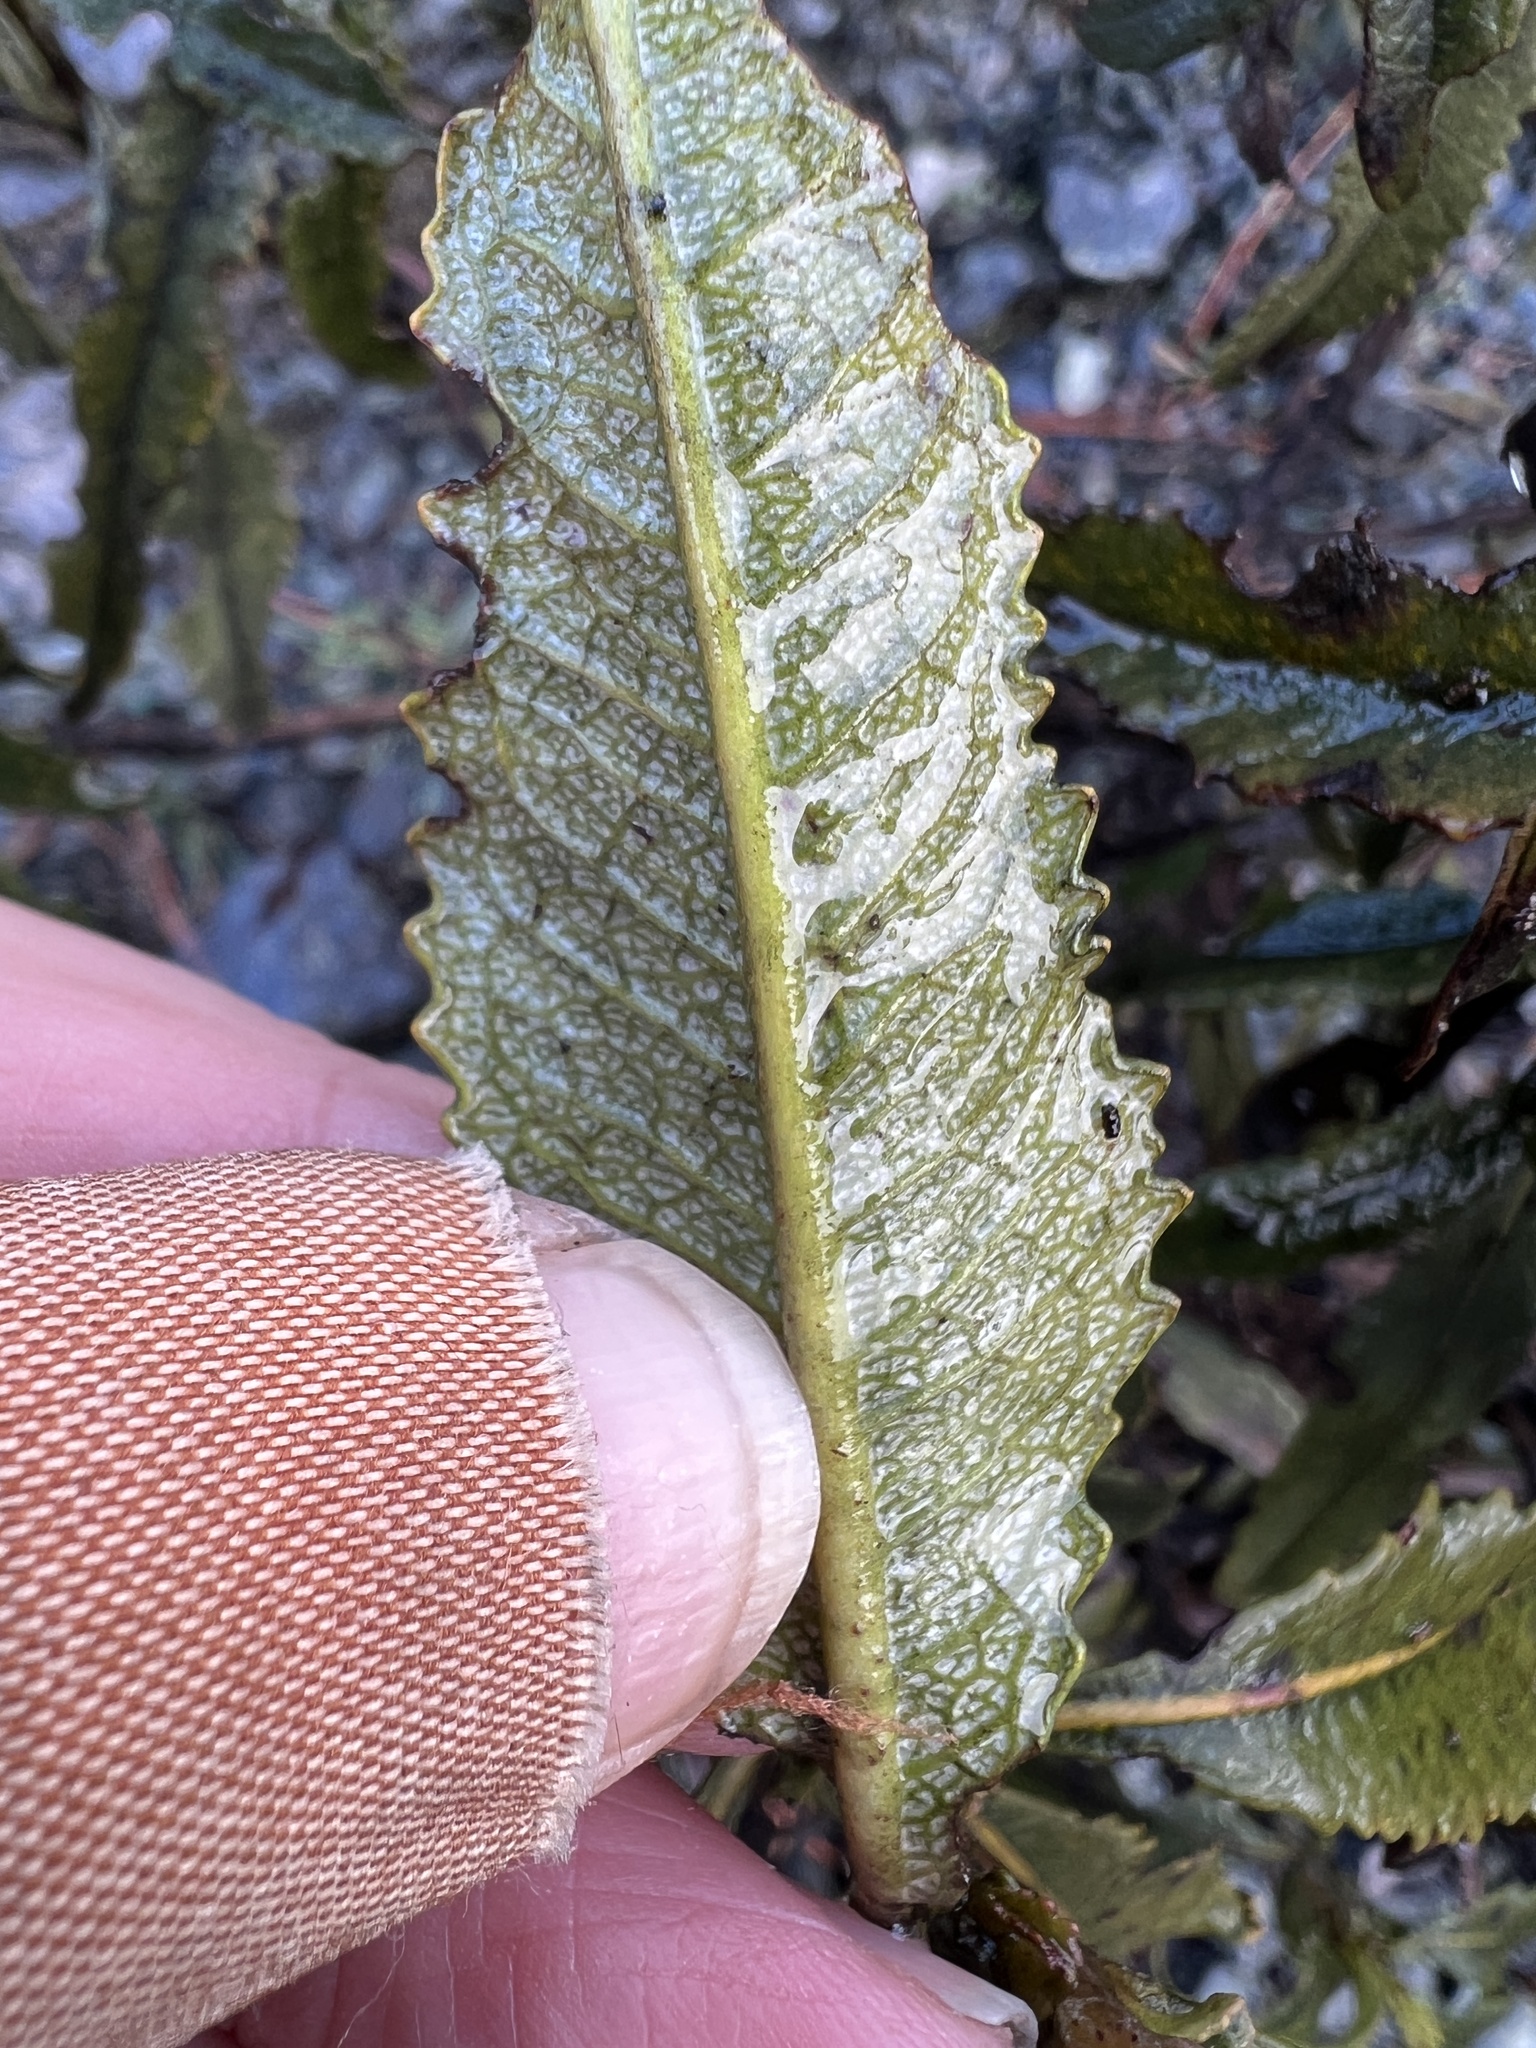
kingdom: Plantae
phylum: Tracheophyta
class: Magnoliopsida
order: Boraginales
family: Namaceae
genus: Eriodictyon
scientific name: Eriodictyon californicum
